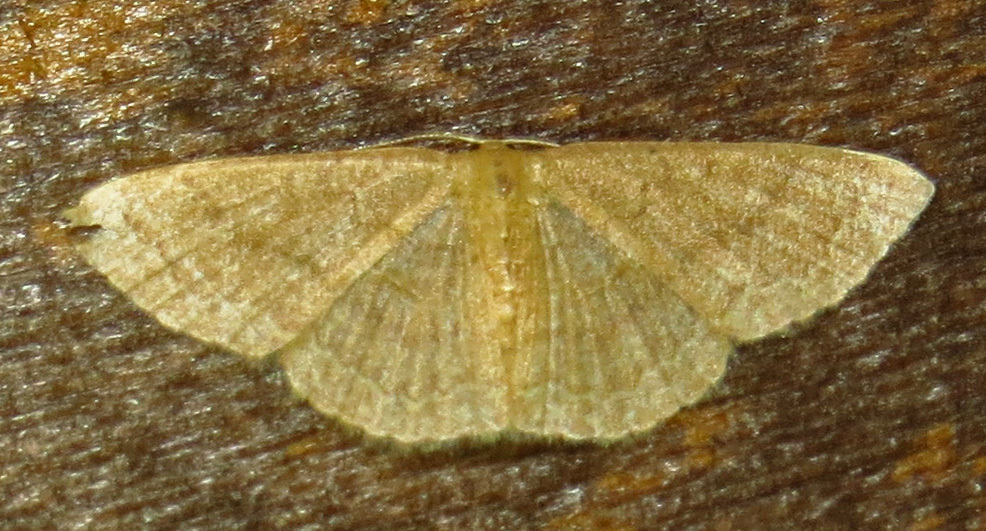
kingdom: Animalia
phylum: Arthropoda
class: Insecta
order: Lepidoptera
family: Geometridae
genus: Pleuroprucha
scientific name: Pleuroprucha insulsaria
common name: Common tan wave
